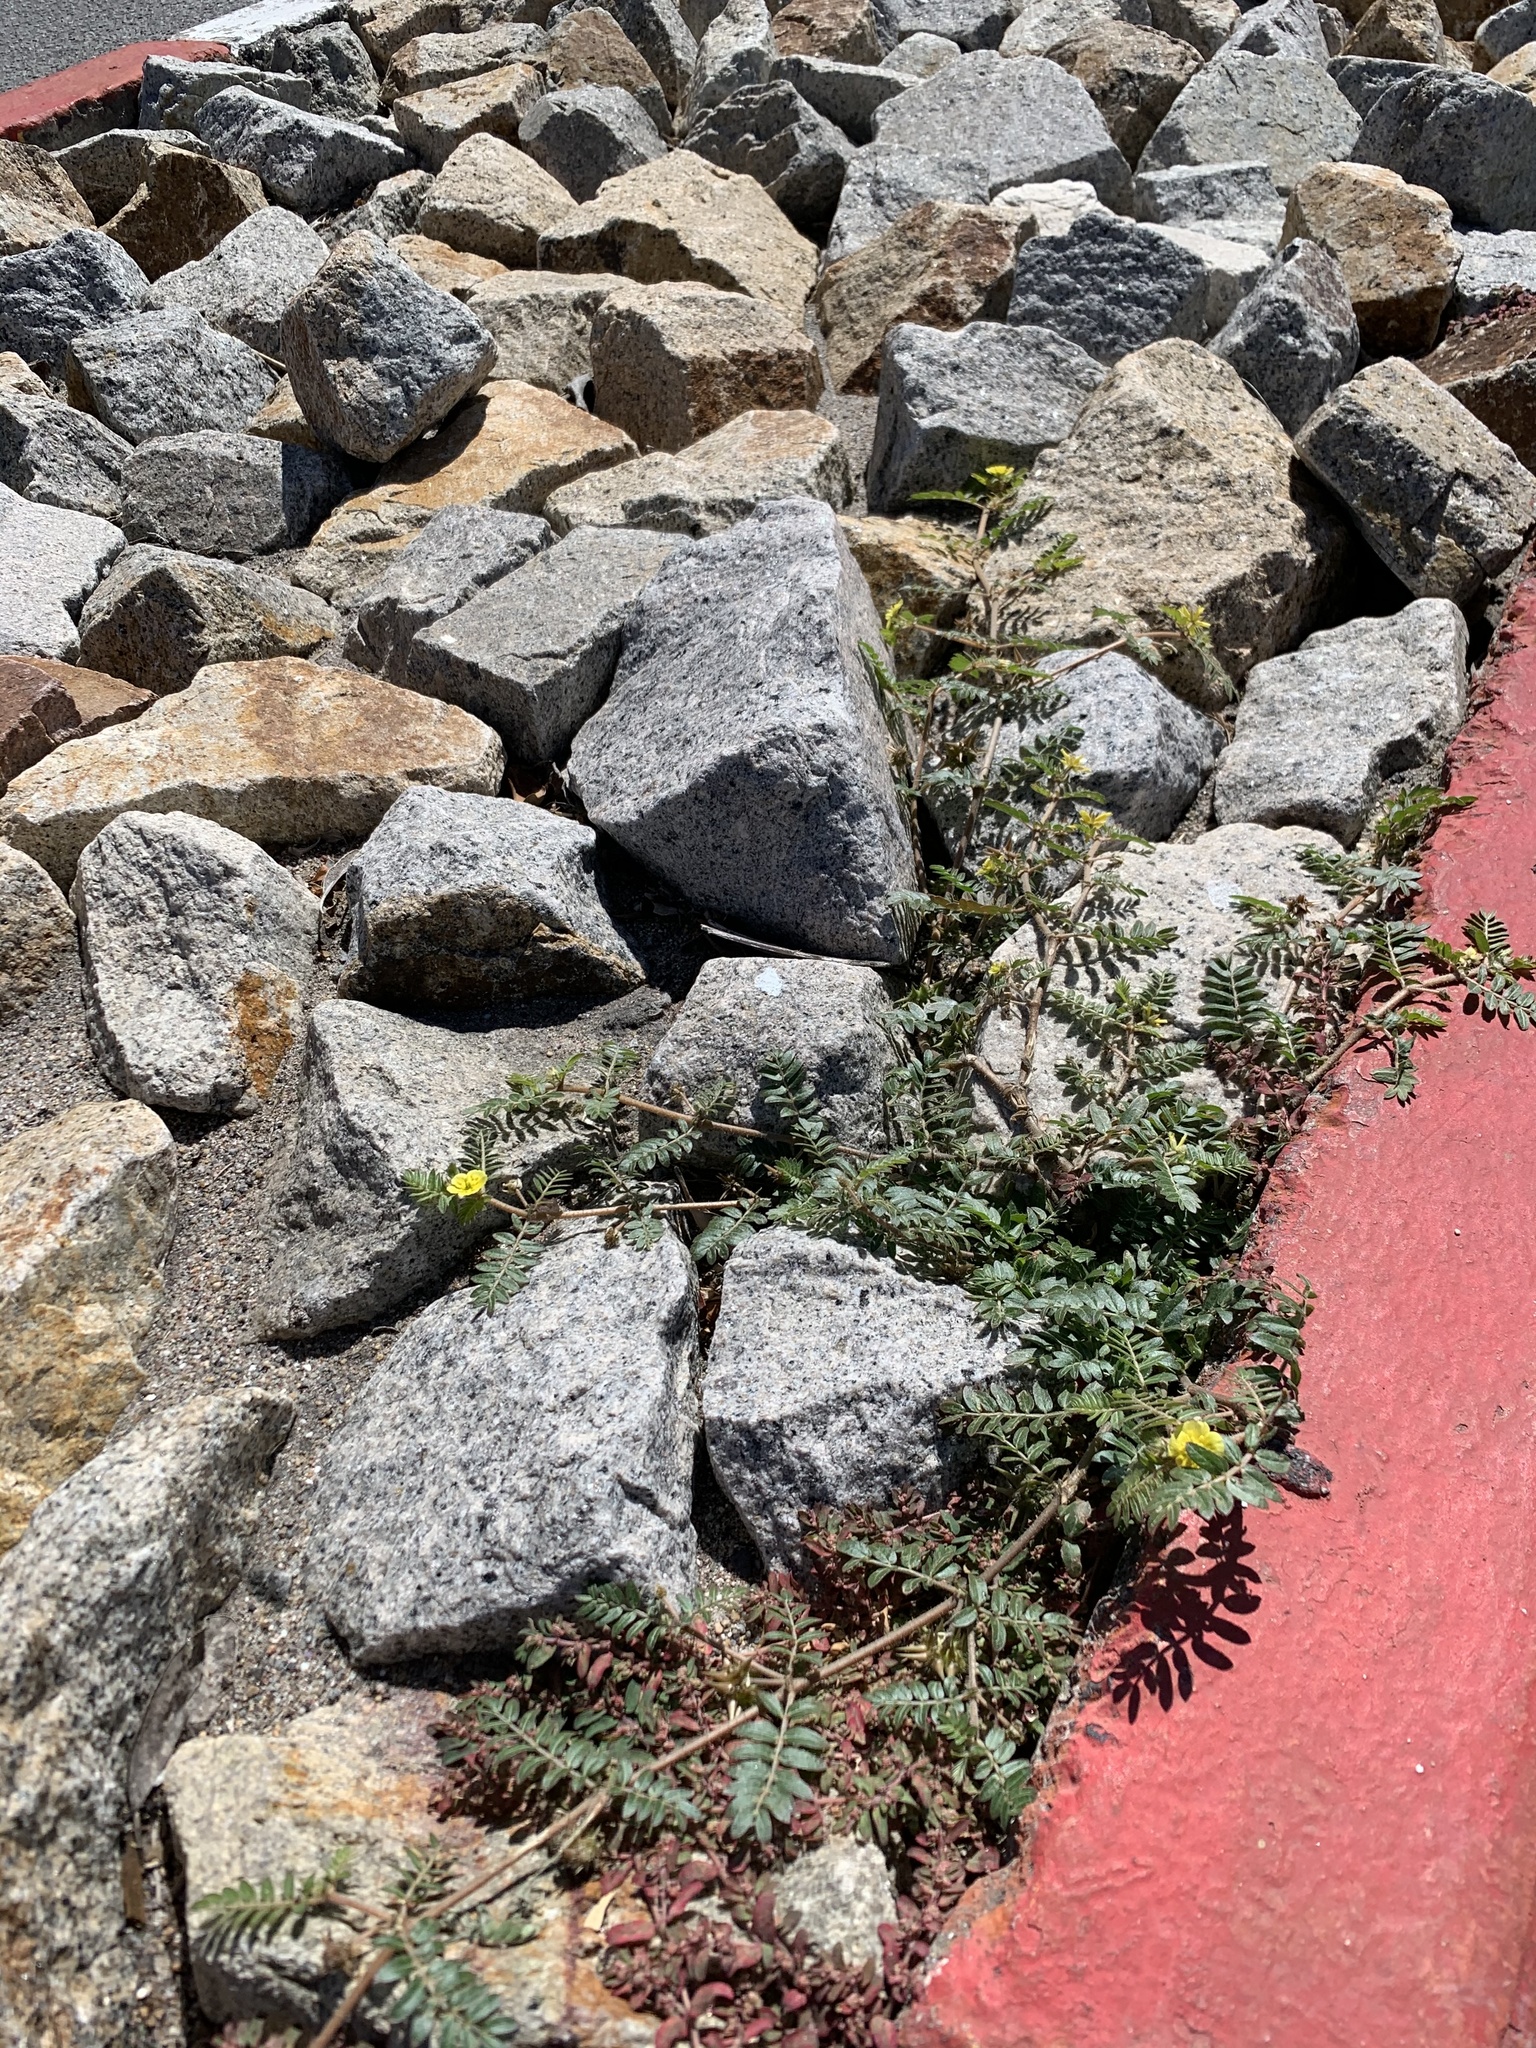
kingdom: Plantae
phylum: Tracheophyta
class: Magnoliopsida
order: Zygophyllales
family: Zygophyllaceae
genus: Tribulus
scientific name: Tribulus terrestris
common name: Puncturevine
